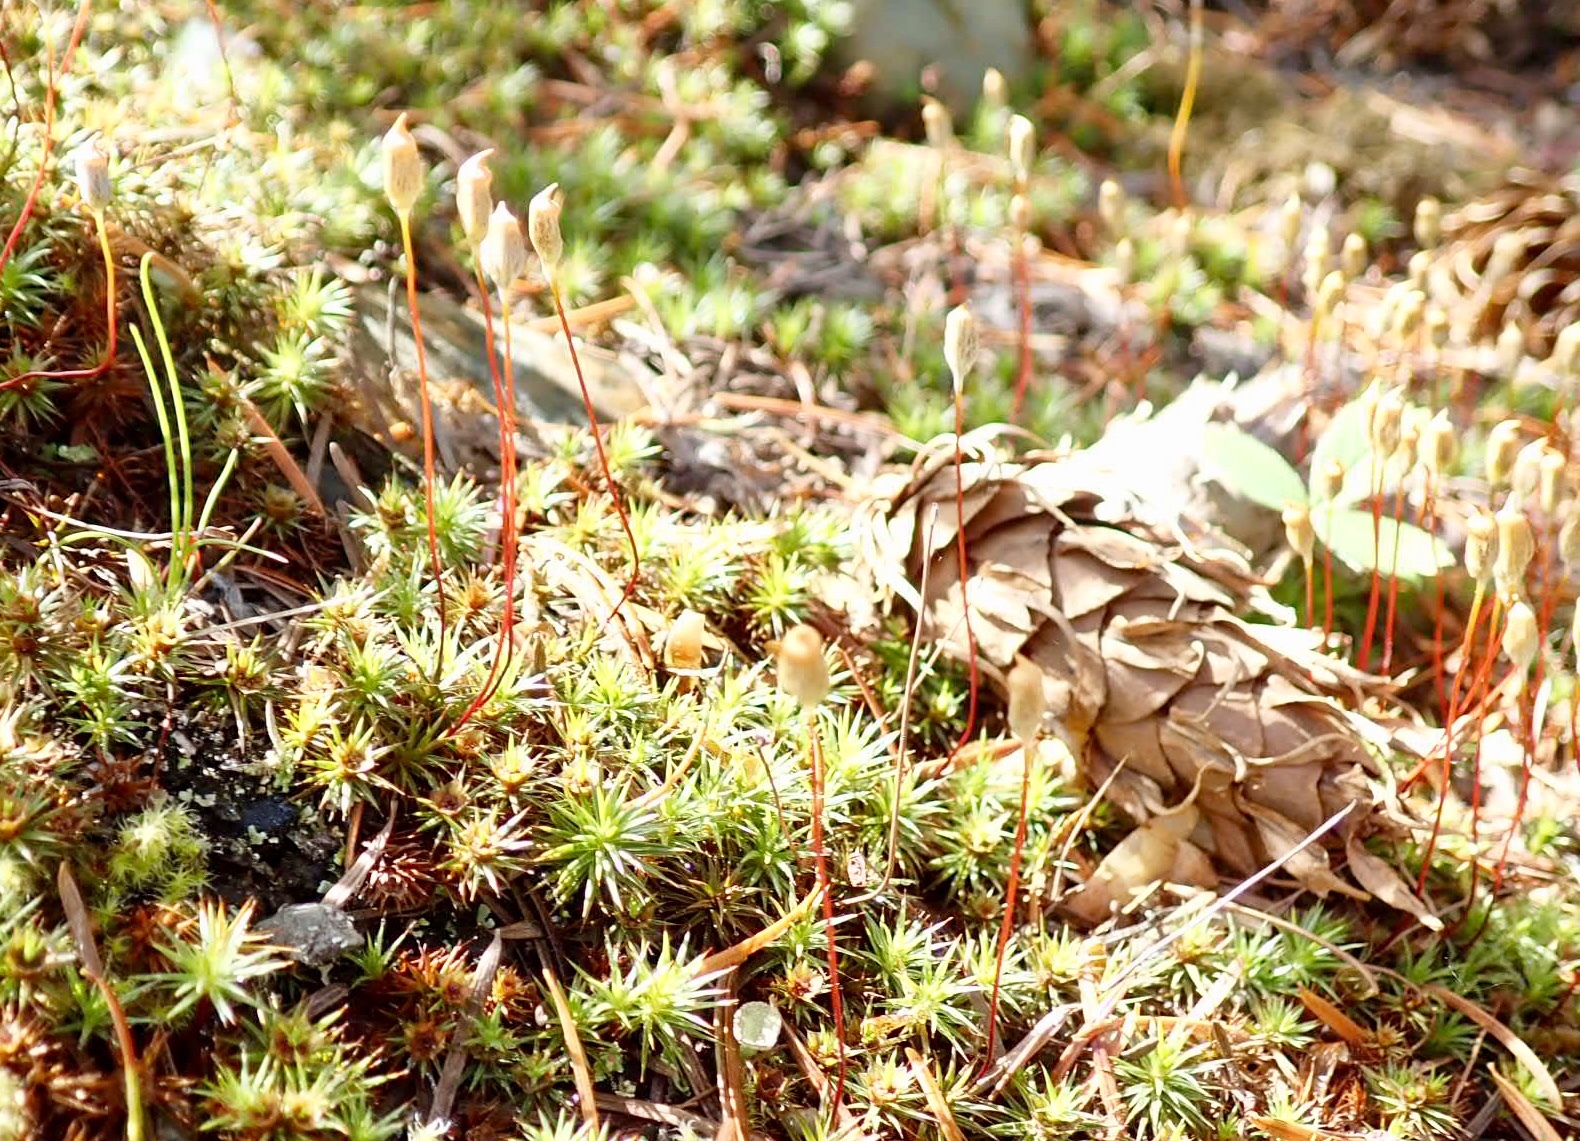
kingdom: Plantae
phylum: Bryophyta
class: Polytrichopsida
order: Polytrichales
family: Polytrichaceae
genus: Polytrichum
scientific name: Polytrichum juniperinum
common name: Juniper haircap moss
